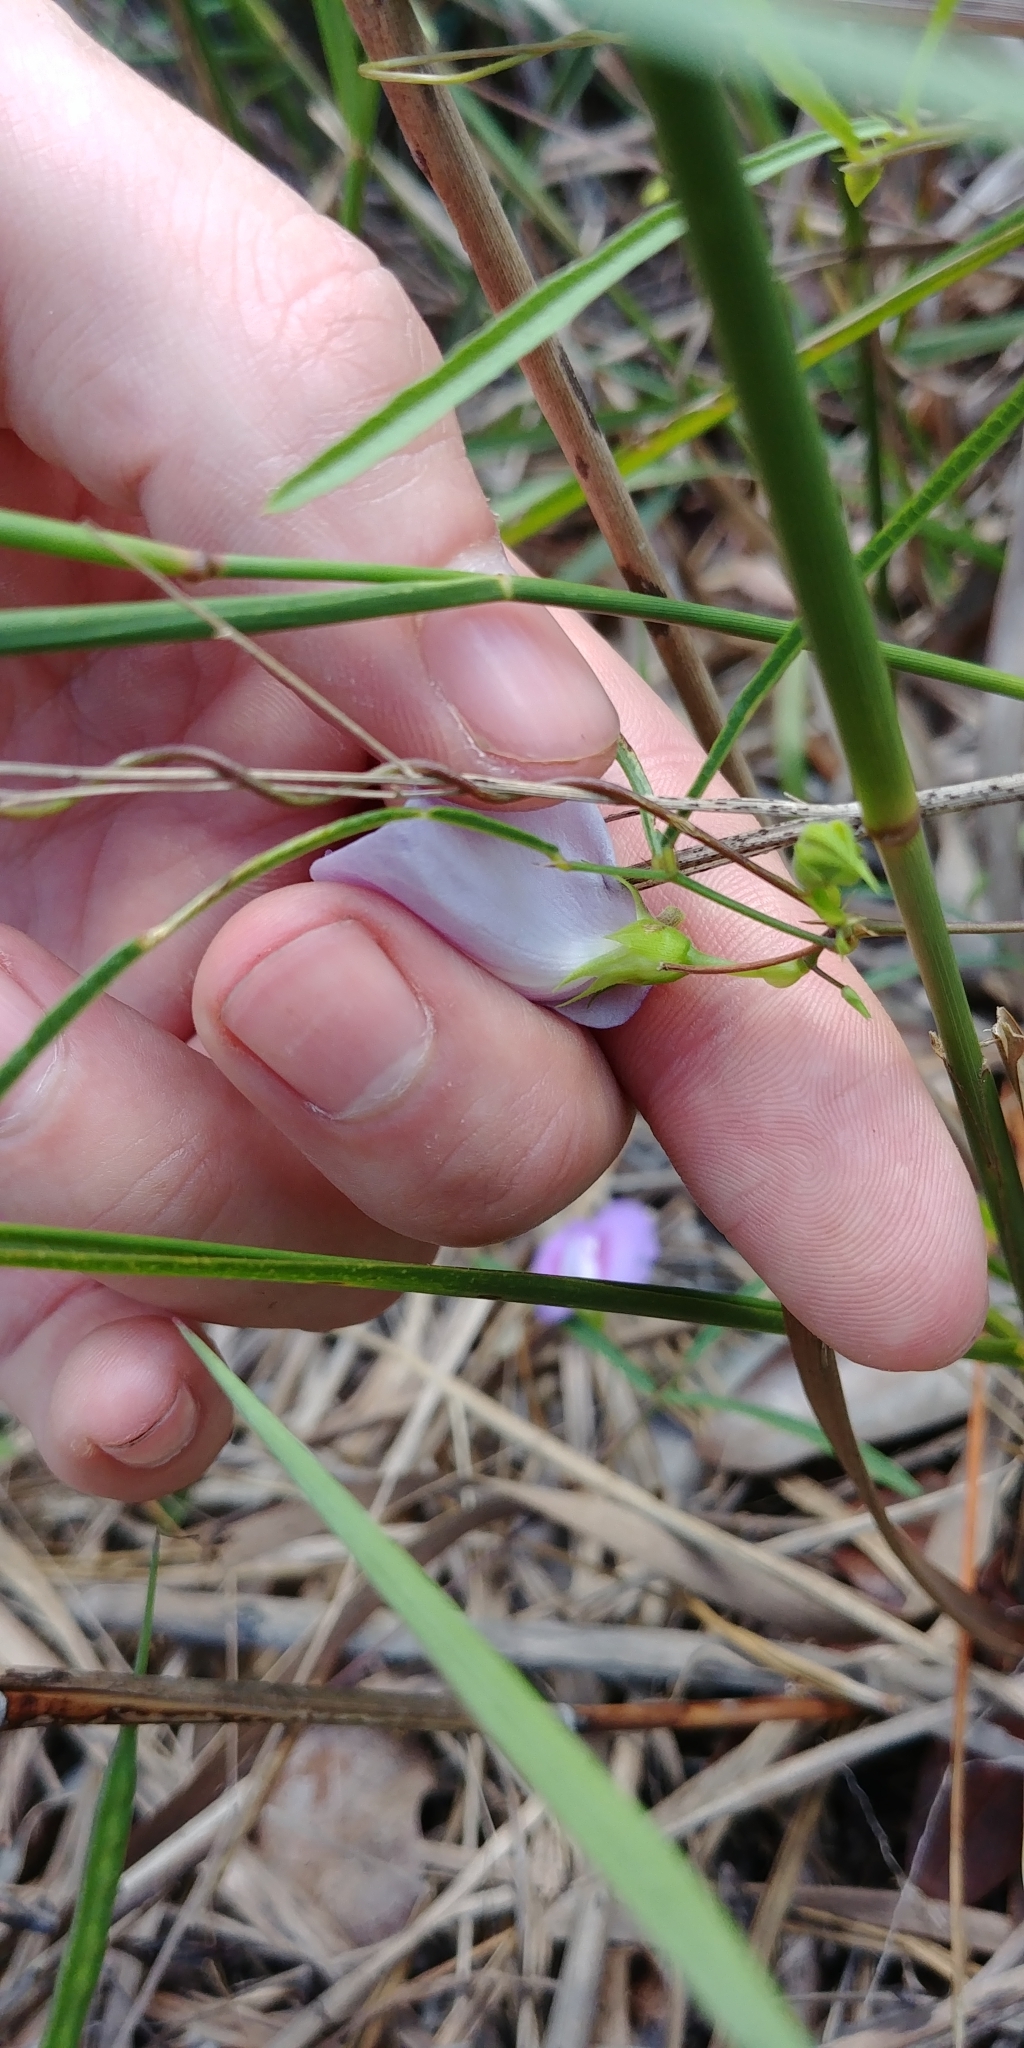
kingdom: Plantae
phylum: Tracheophyta
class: Magnoliopsida
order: Fabales
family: Fabaceae
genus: Centrosema
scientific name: Centrosema virginianum
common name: Butterfly-pea
